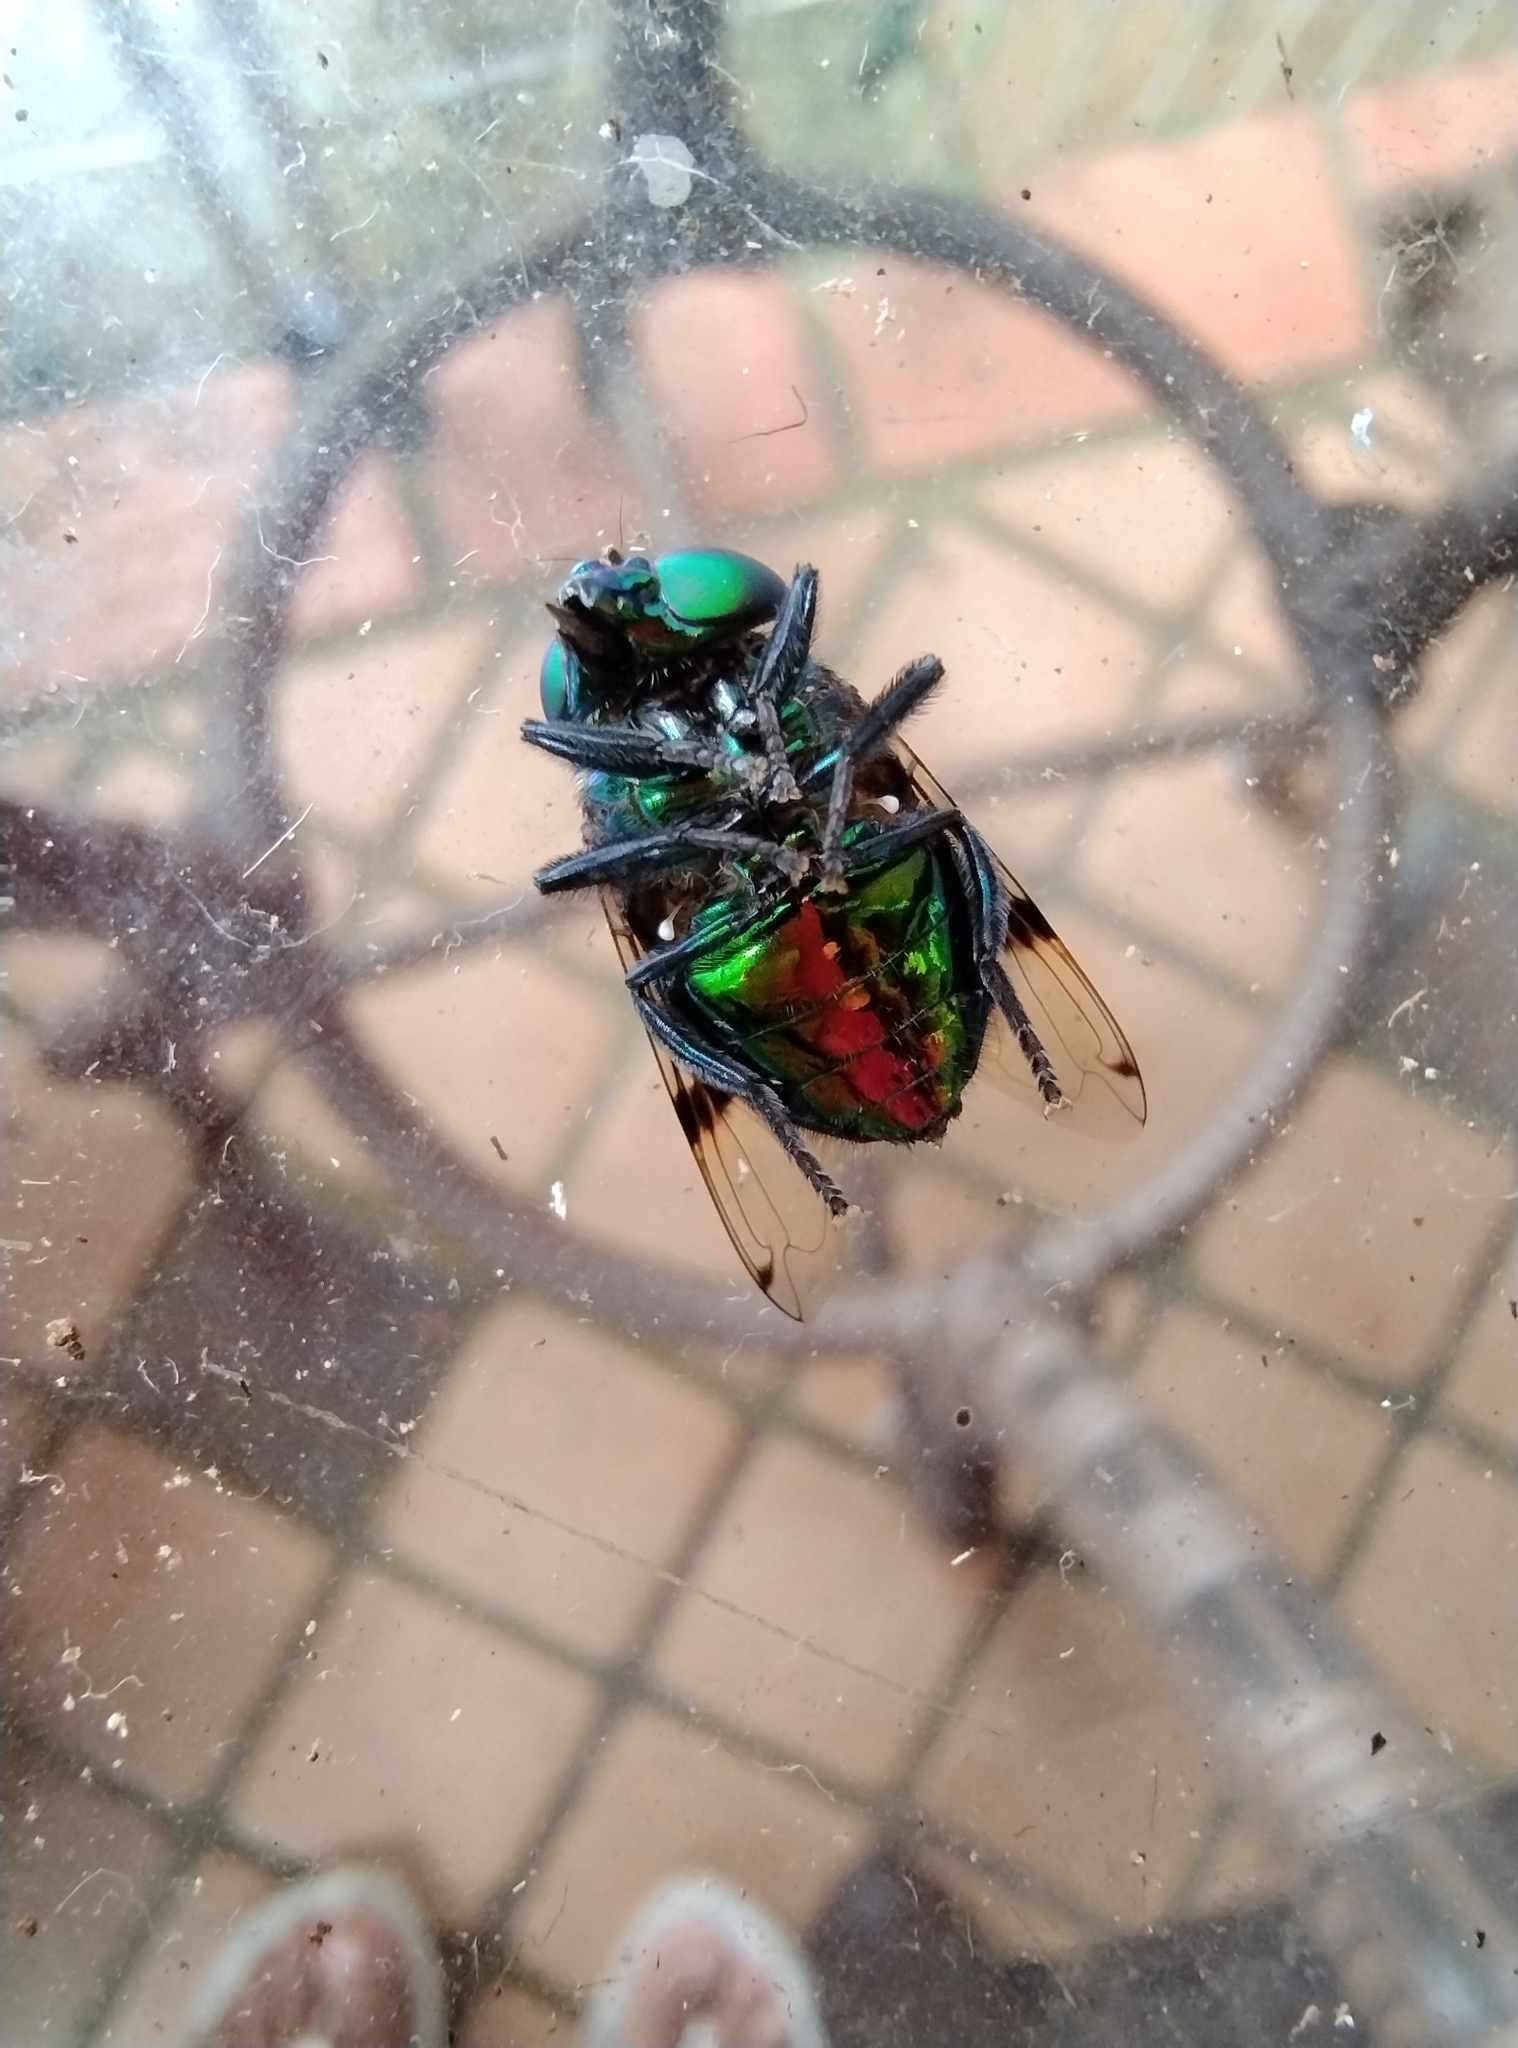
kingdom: Animalia
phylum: Arthropoda
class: Insecta
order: Diptera
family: Syrphidae
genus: Ornidia
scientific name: Ornidia major
